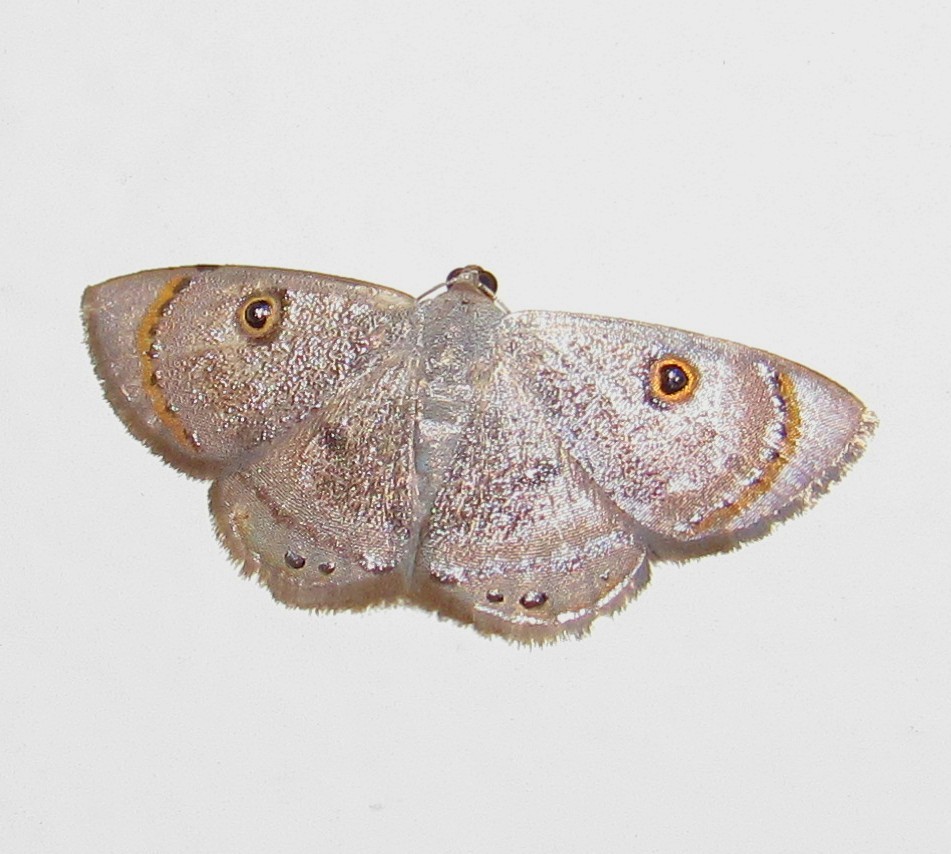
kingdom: Animalia
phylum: Arthropoda
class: Insecta
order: Lepidoptera
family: Geometridae
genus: Argyrotome
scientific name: Argyrotome muricolor
